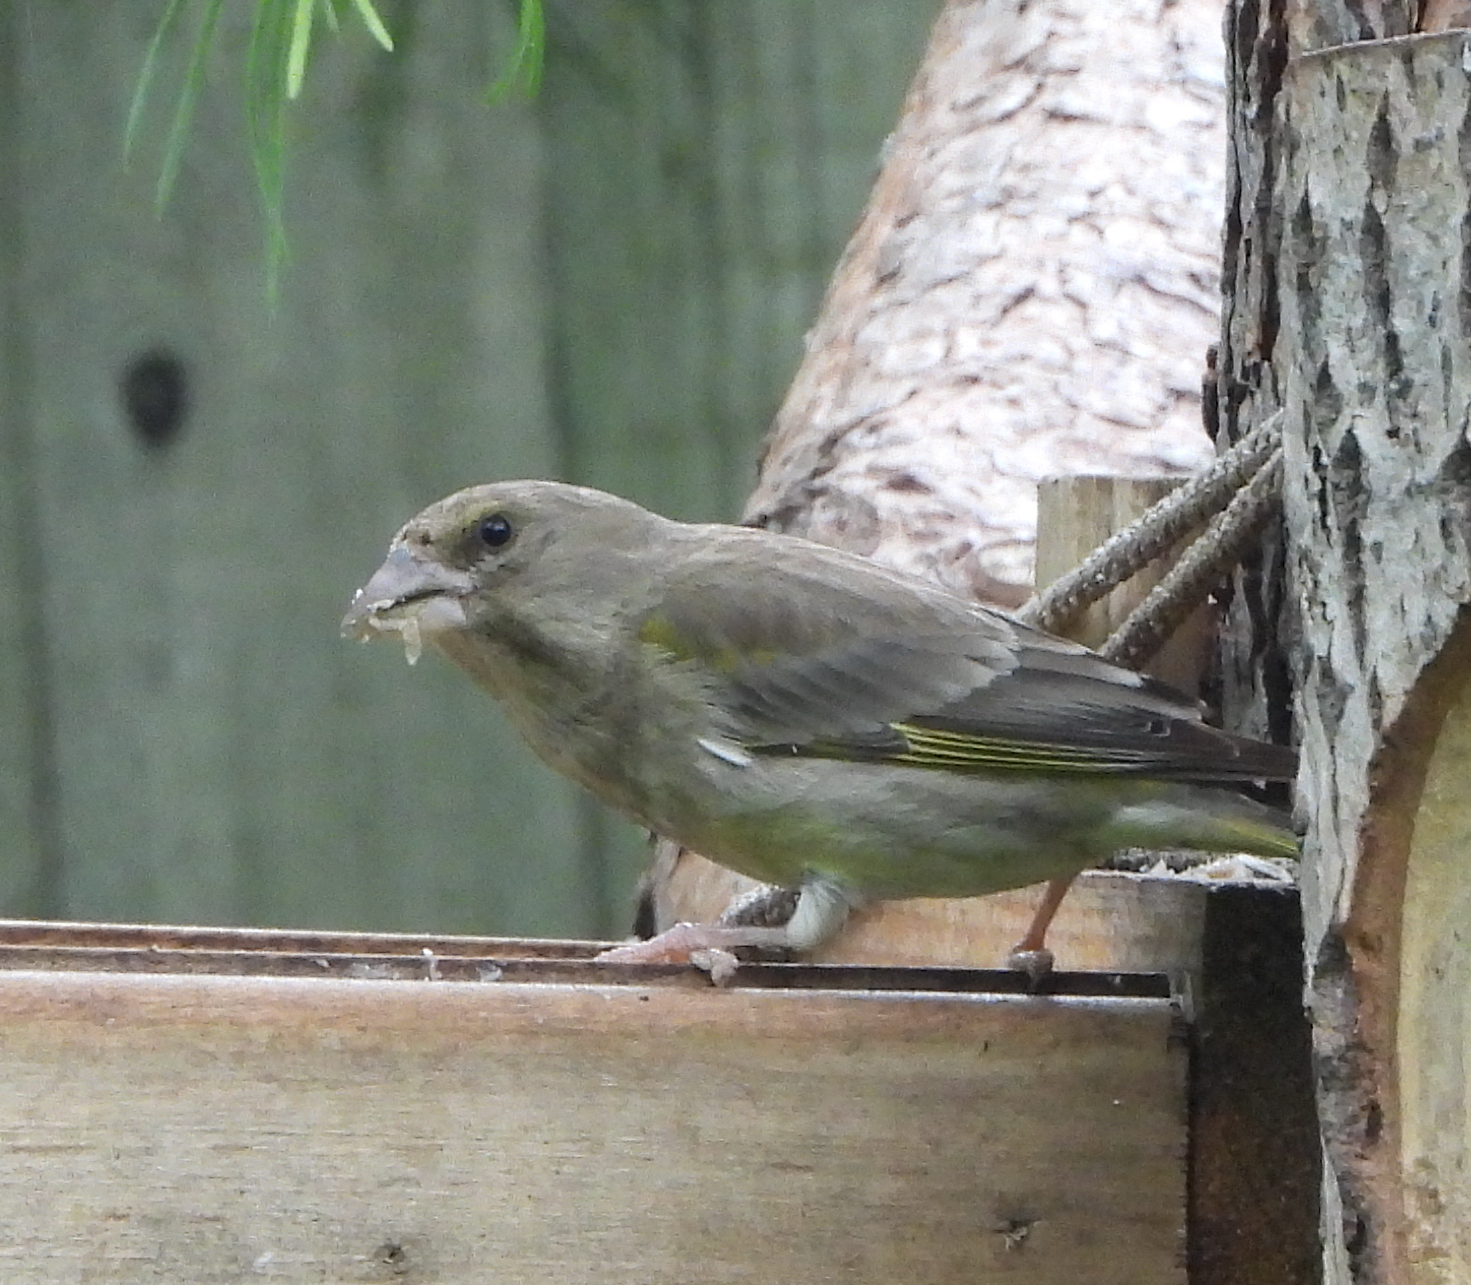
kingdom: Plantae
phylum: Tracheophyta
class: Liliopsida
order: Poales
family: Poaceae
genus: Chloris
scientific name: Chloris chloris
